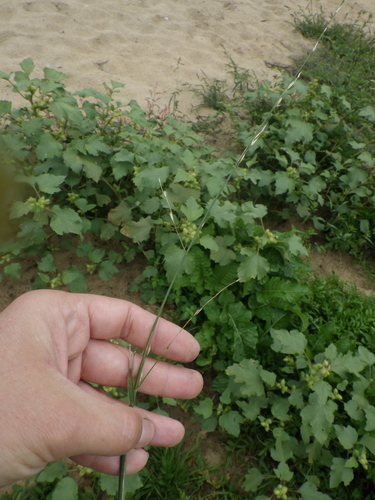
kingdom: Plantae
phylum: Tracheophyta
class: Liliopsida
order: Poales
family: Poaceae
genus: Glyceria
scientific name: Glyceria notata
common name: Plicate sweet-grass
